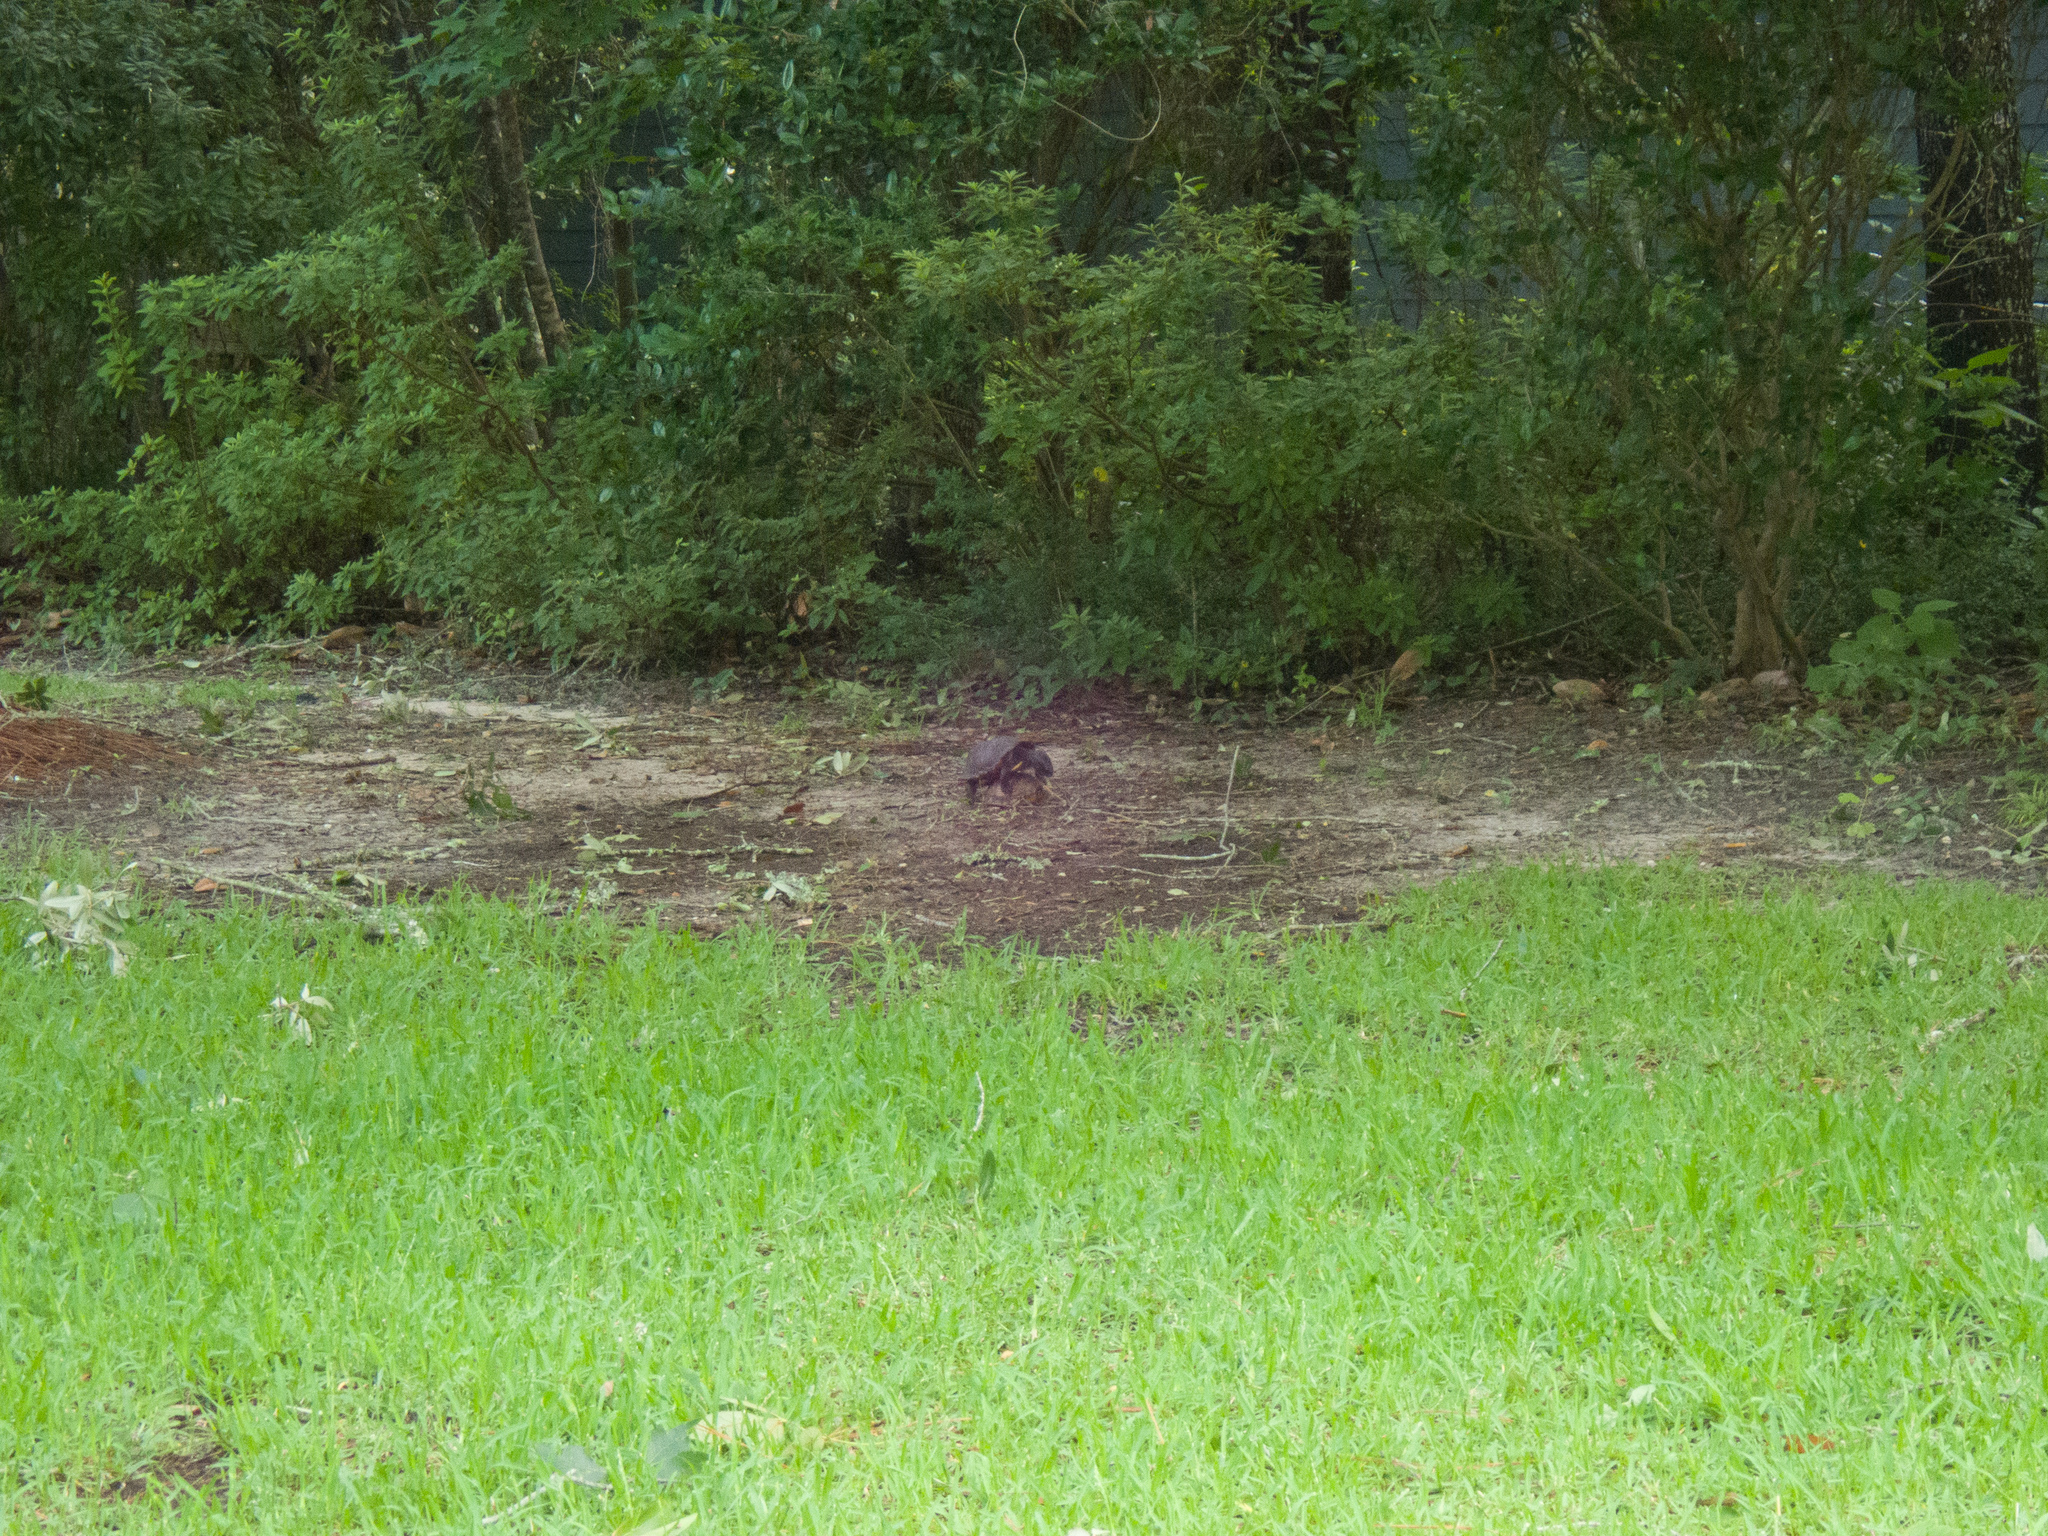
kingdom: Animalia
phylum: Chordata
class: Testudines
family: Emydidae
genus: Terrapene
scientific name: Terrapene carolina
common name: Common box turtle
